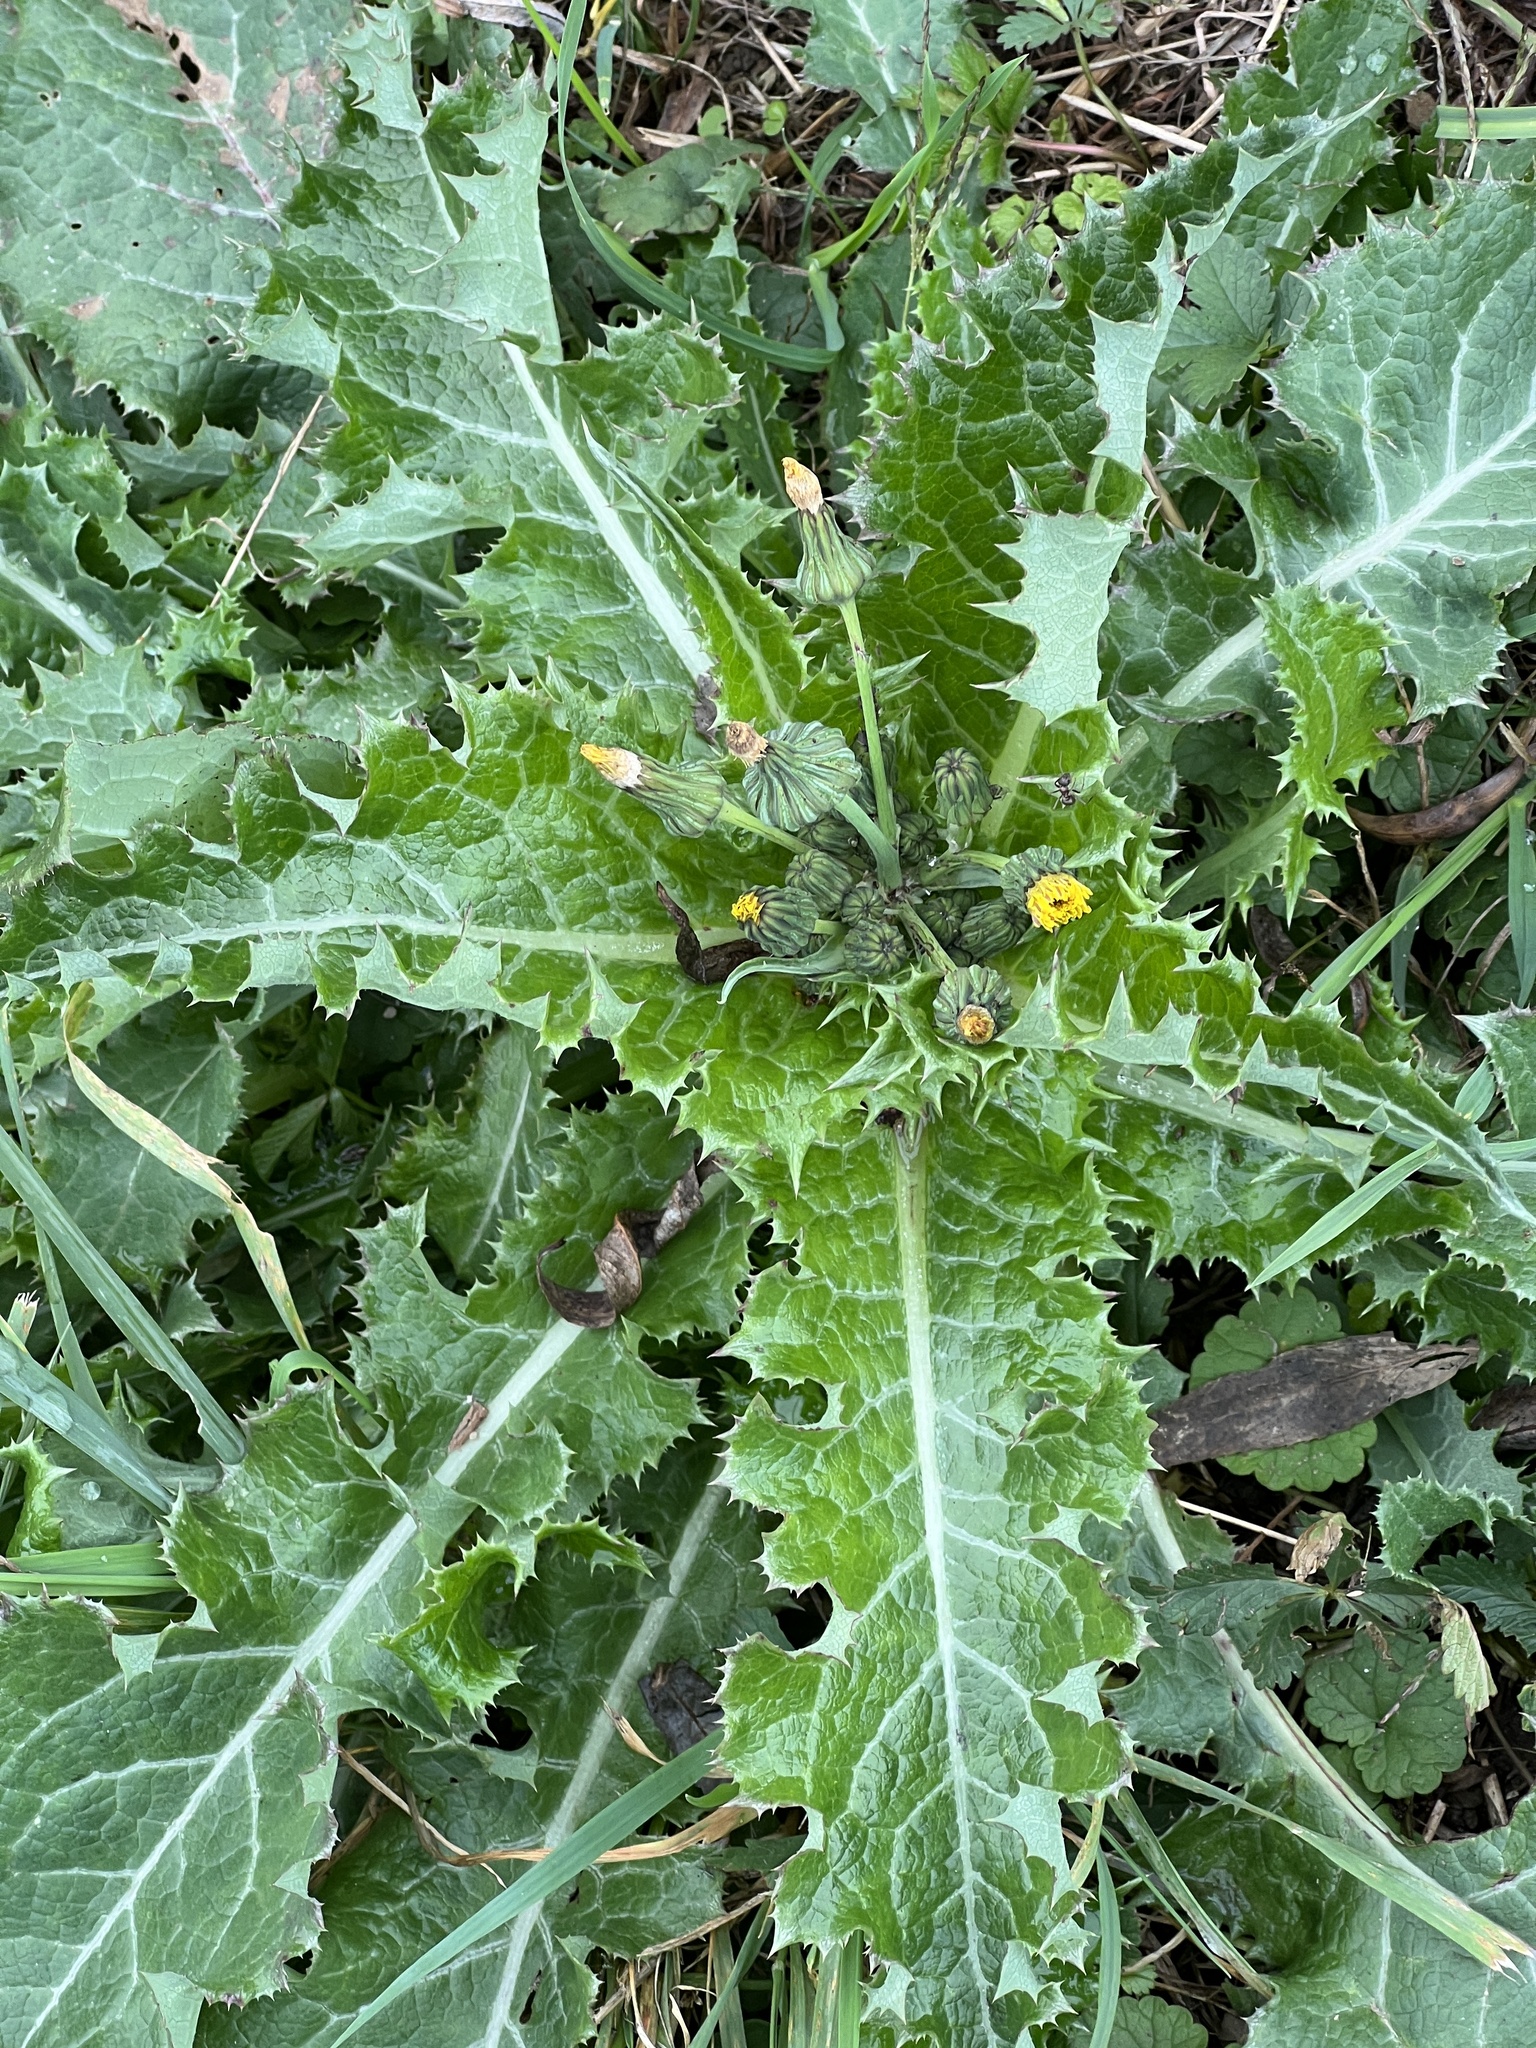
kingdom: Plantae
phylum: Tracheophyta
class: Magnoliopsida
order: Asterales
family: Asteraceae
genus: Sonchus
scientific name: Sonchus asper
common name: Prickly sow-thistle
